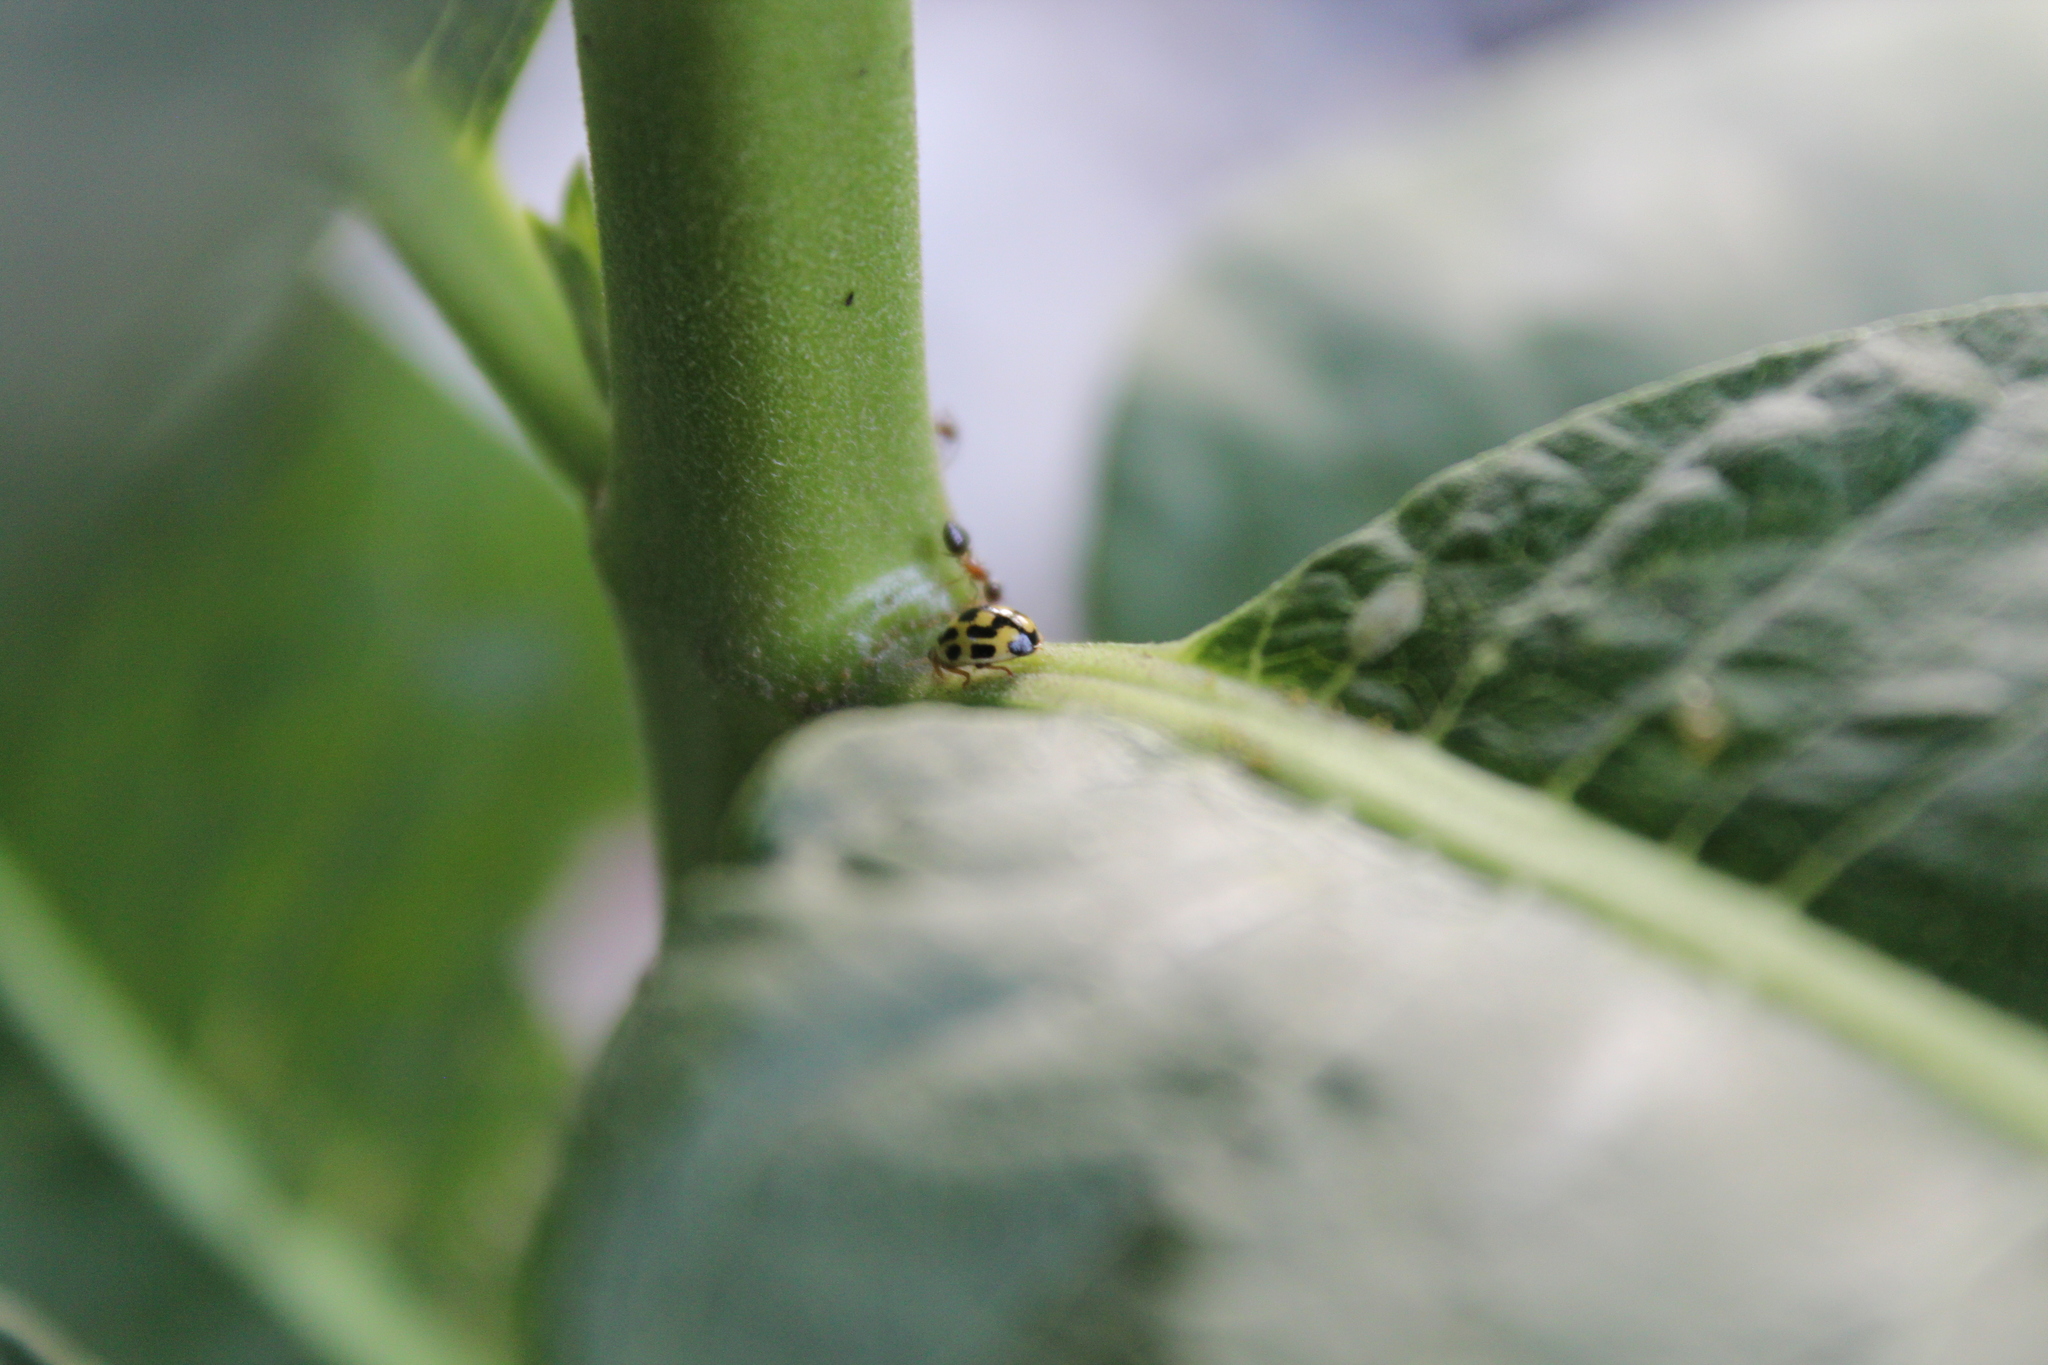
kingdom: Animalia
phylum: Arthropoda
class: Insecta
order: Coleoptera
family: Coccinellidae
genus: Propylaea
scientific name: Propylaea quatuordecimpunctata
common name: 14-spotted ladybird beetle
